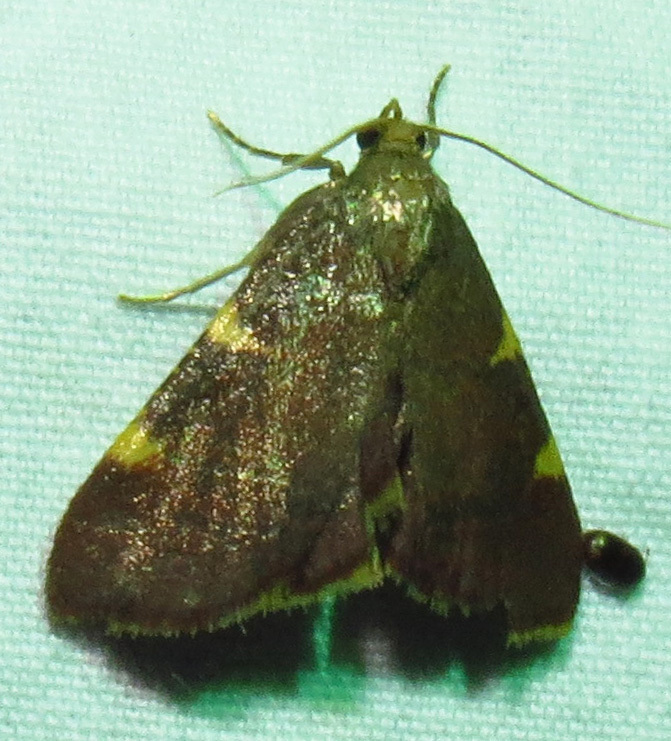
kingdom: Animalia
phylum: Arthropoda
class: Insecta
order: Lepidoptera
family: Pyralidae
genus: Hypsopygia
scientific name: Hypsopygia olinalis
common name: Yellow-fringed dolichomia moth
